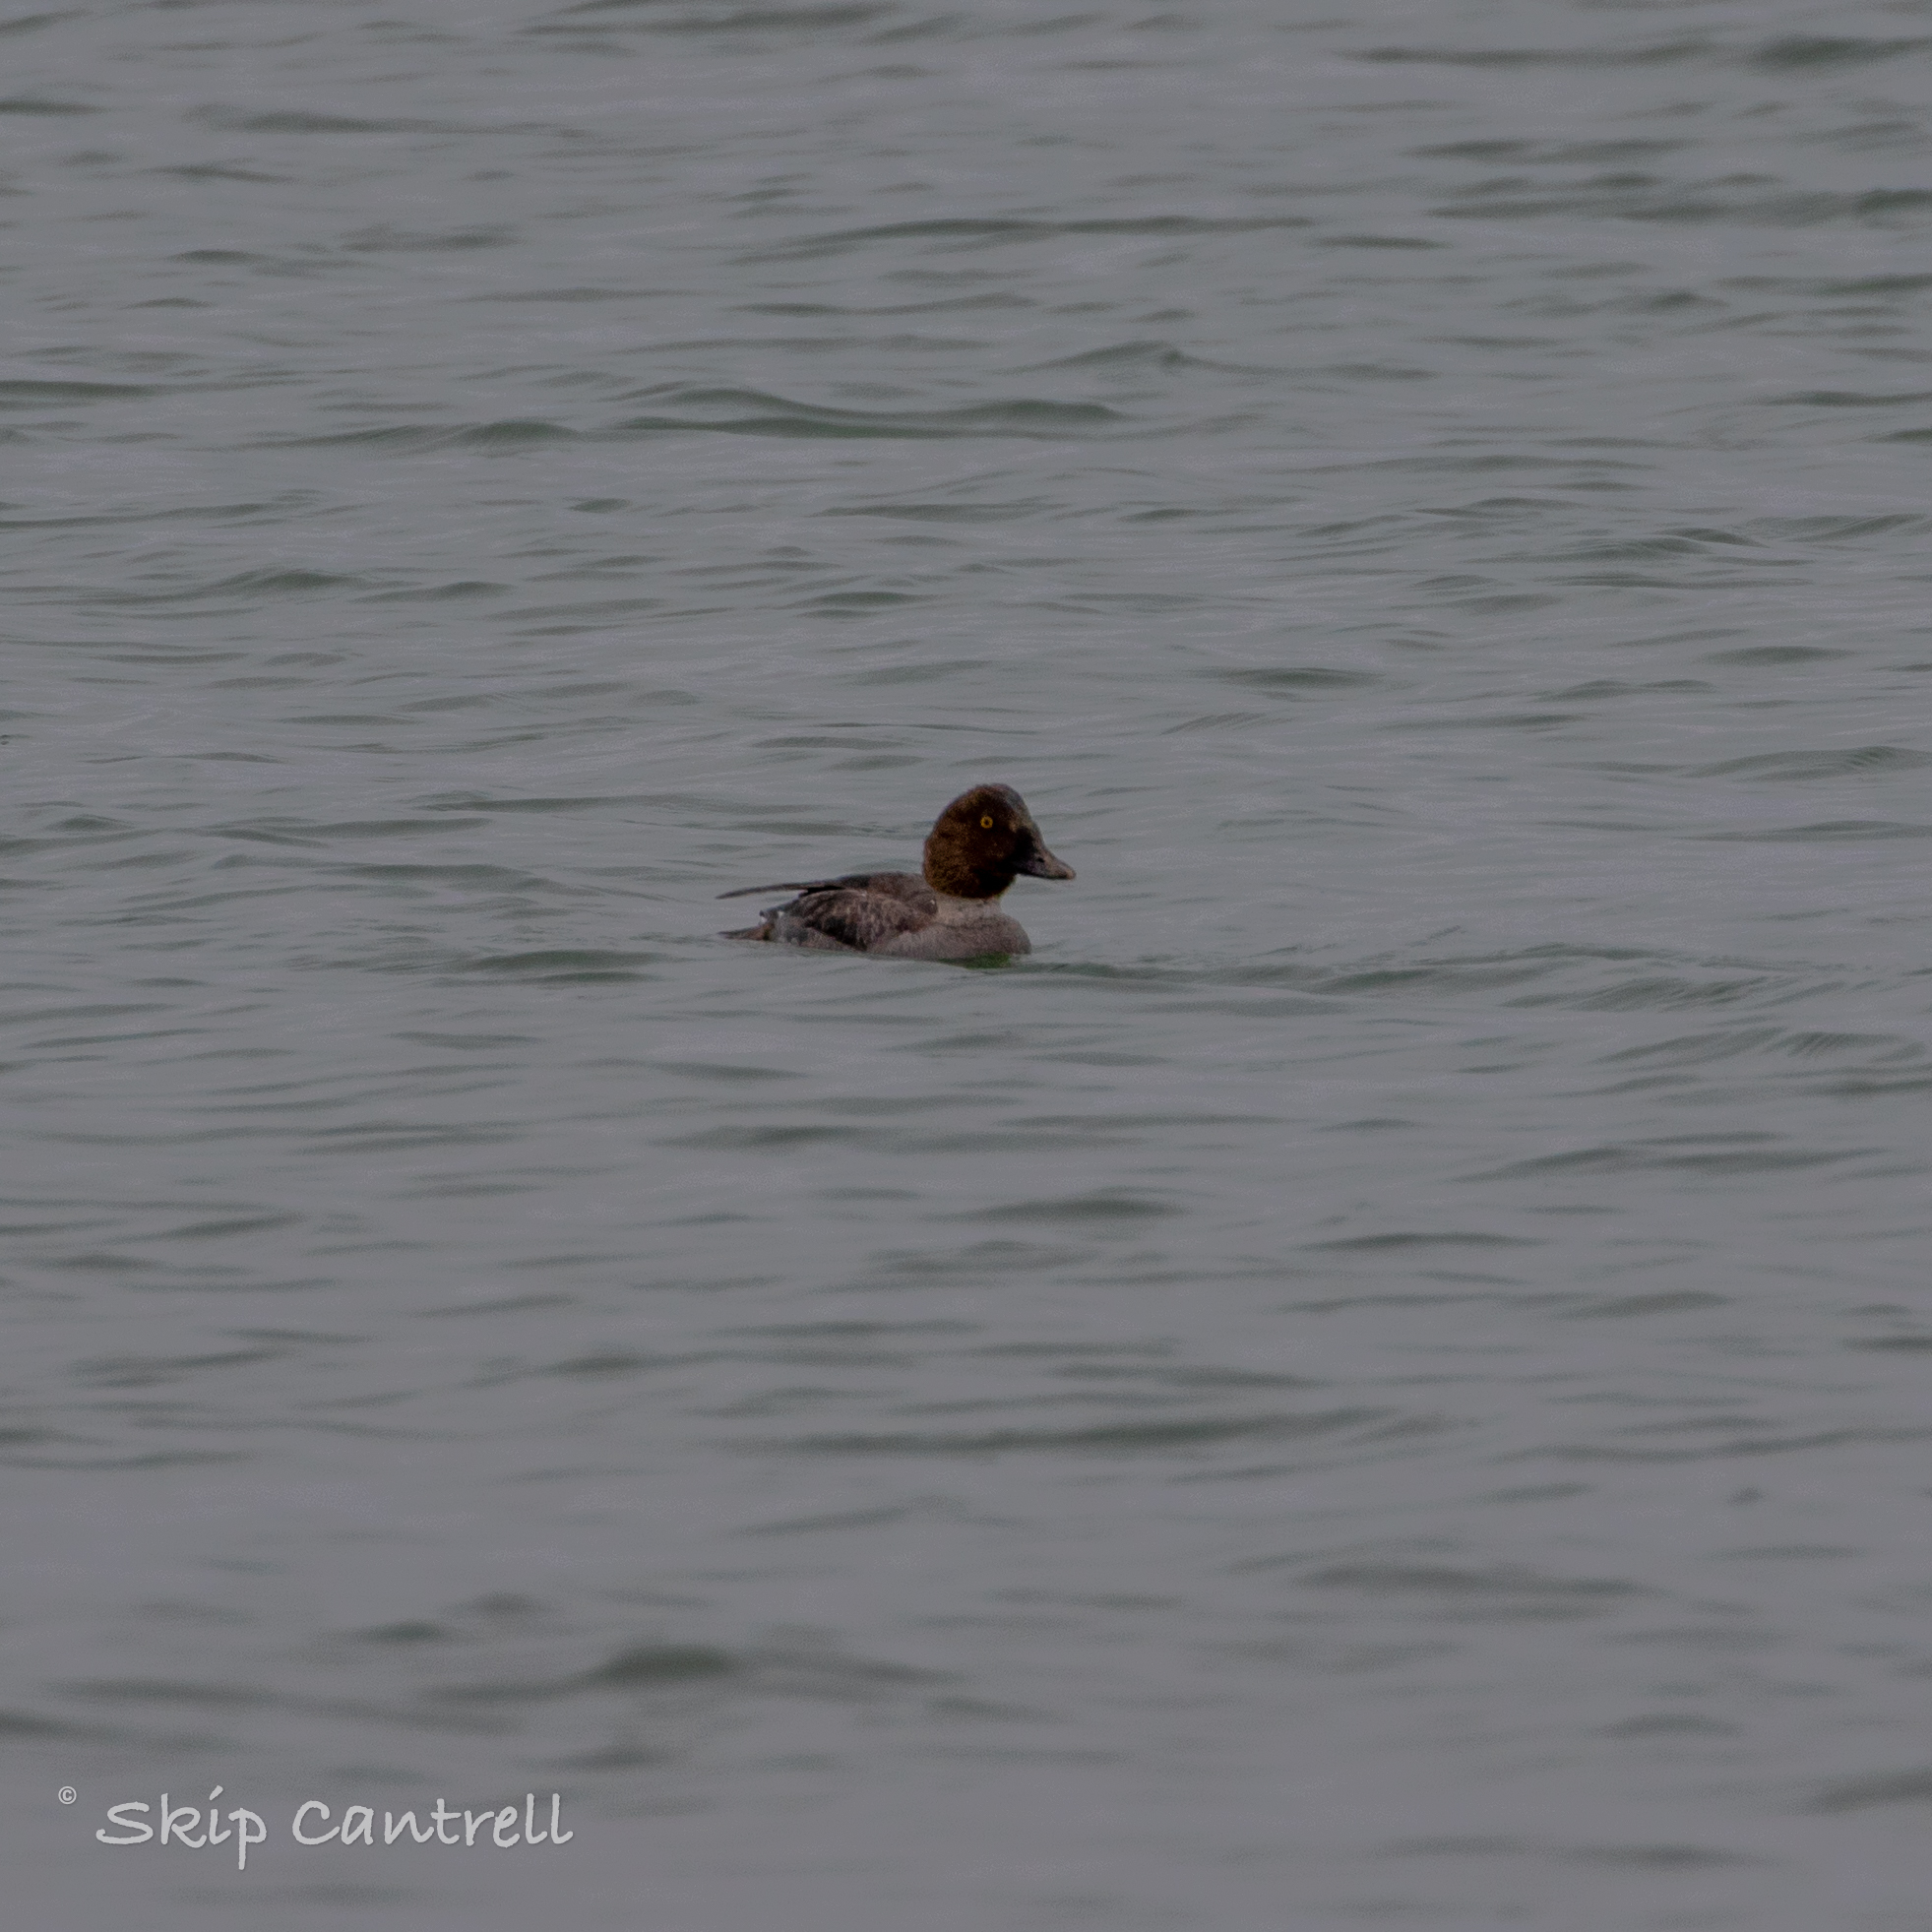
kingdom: Animalia
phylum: Chordata
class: Aves
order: Anseriformes
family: Anatidae
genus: Bucephala
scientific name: Bucephala clangula
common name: Common goldeneye
